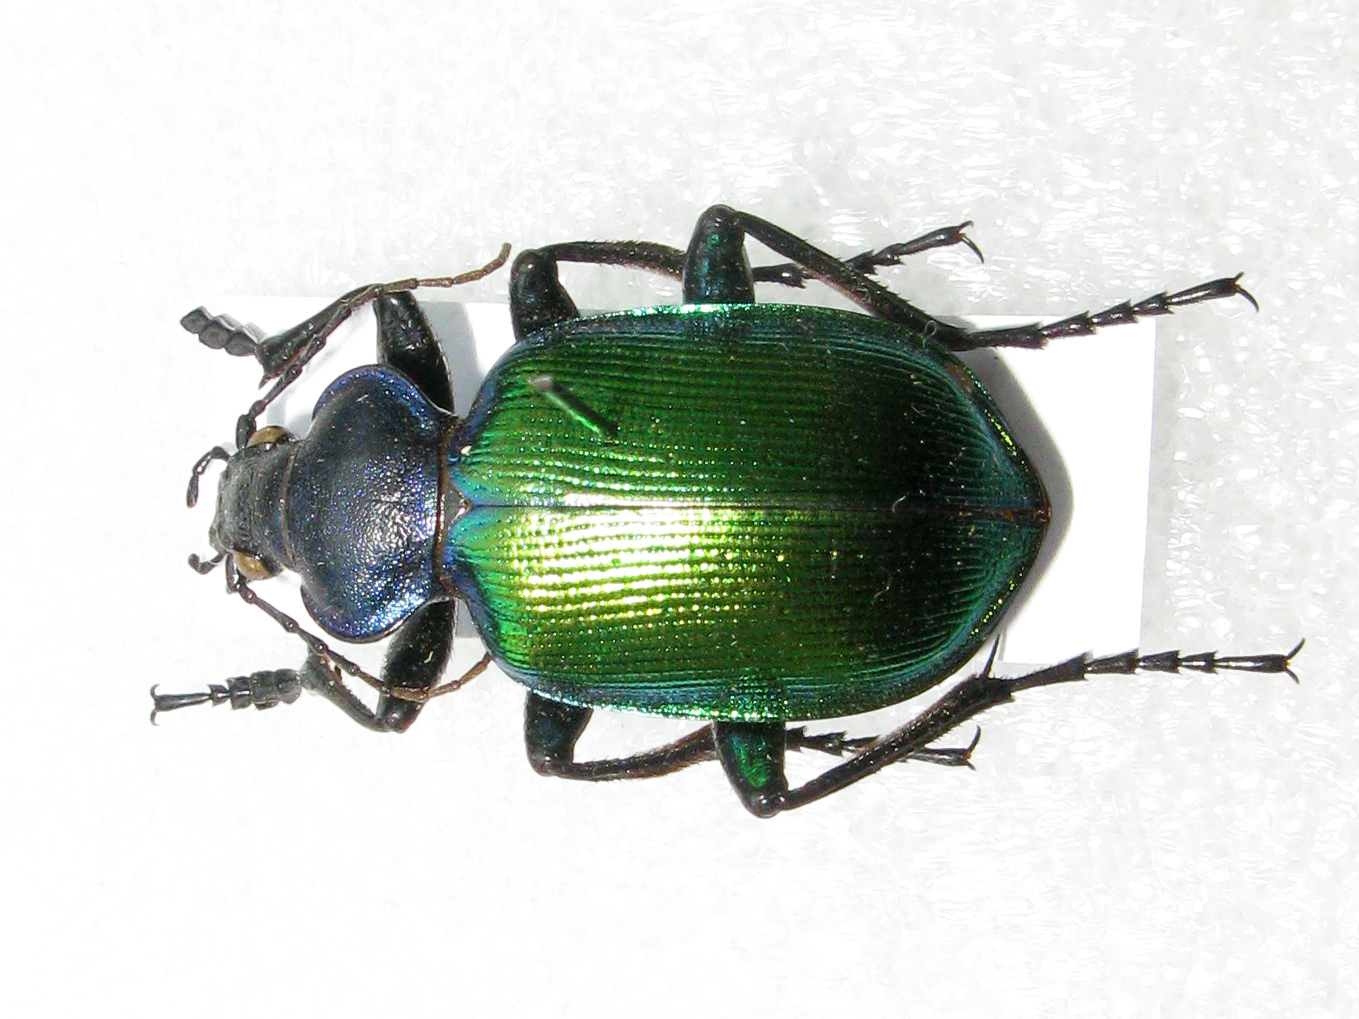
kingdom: Animalia
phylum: Arthropoda
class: Insecta
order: Coleoptera
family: Carabidae
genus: Calosoma
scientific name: Calosoma sycophanta
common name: Forest caterpillar hunter
